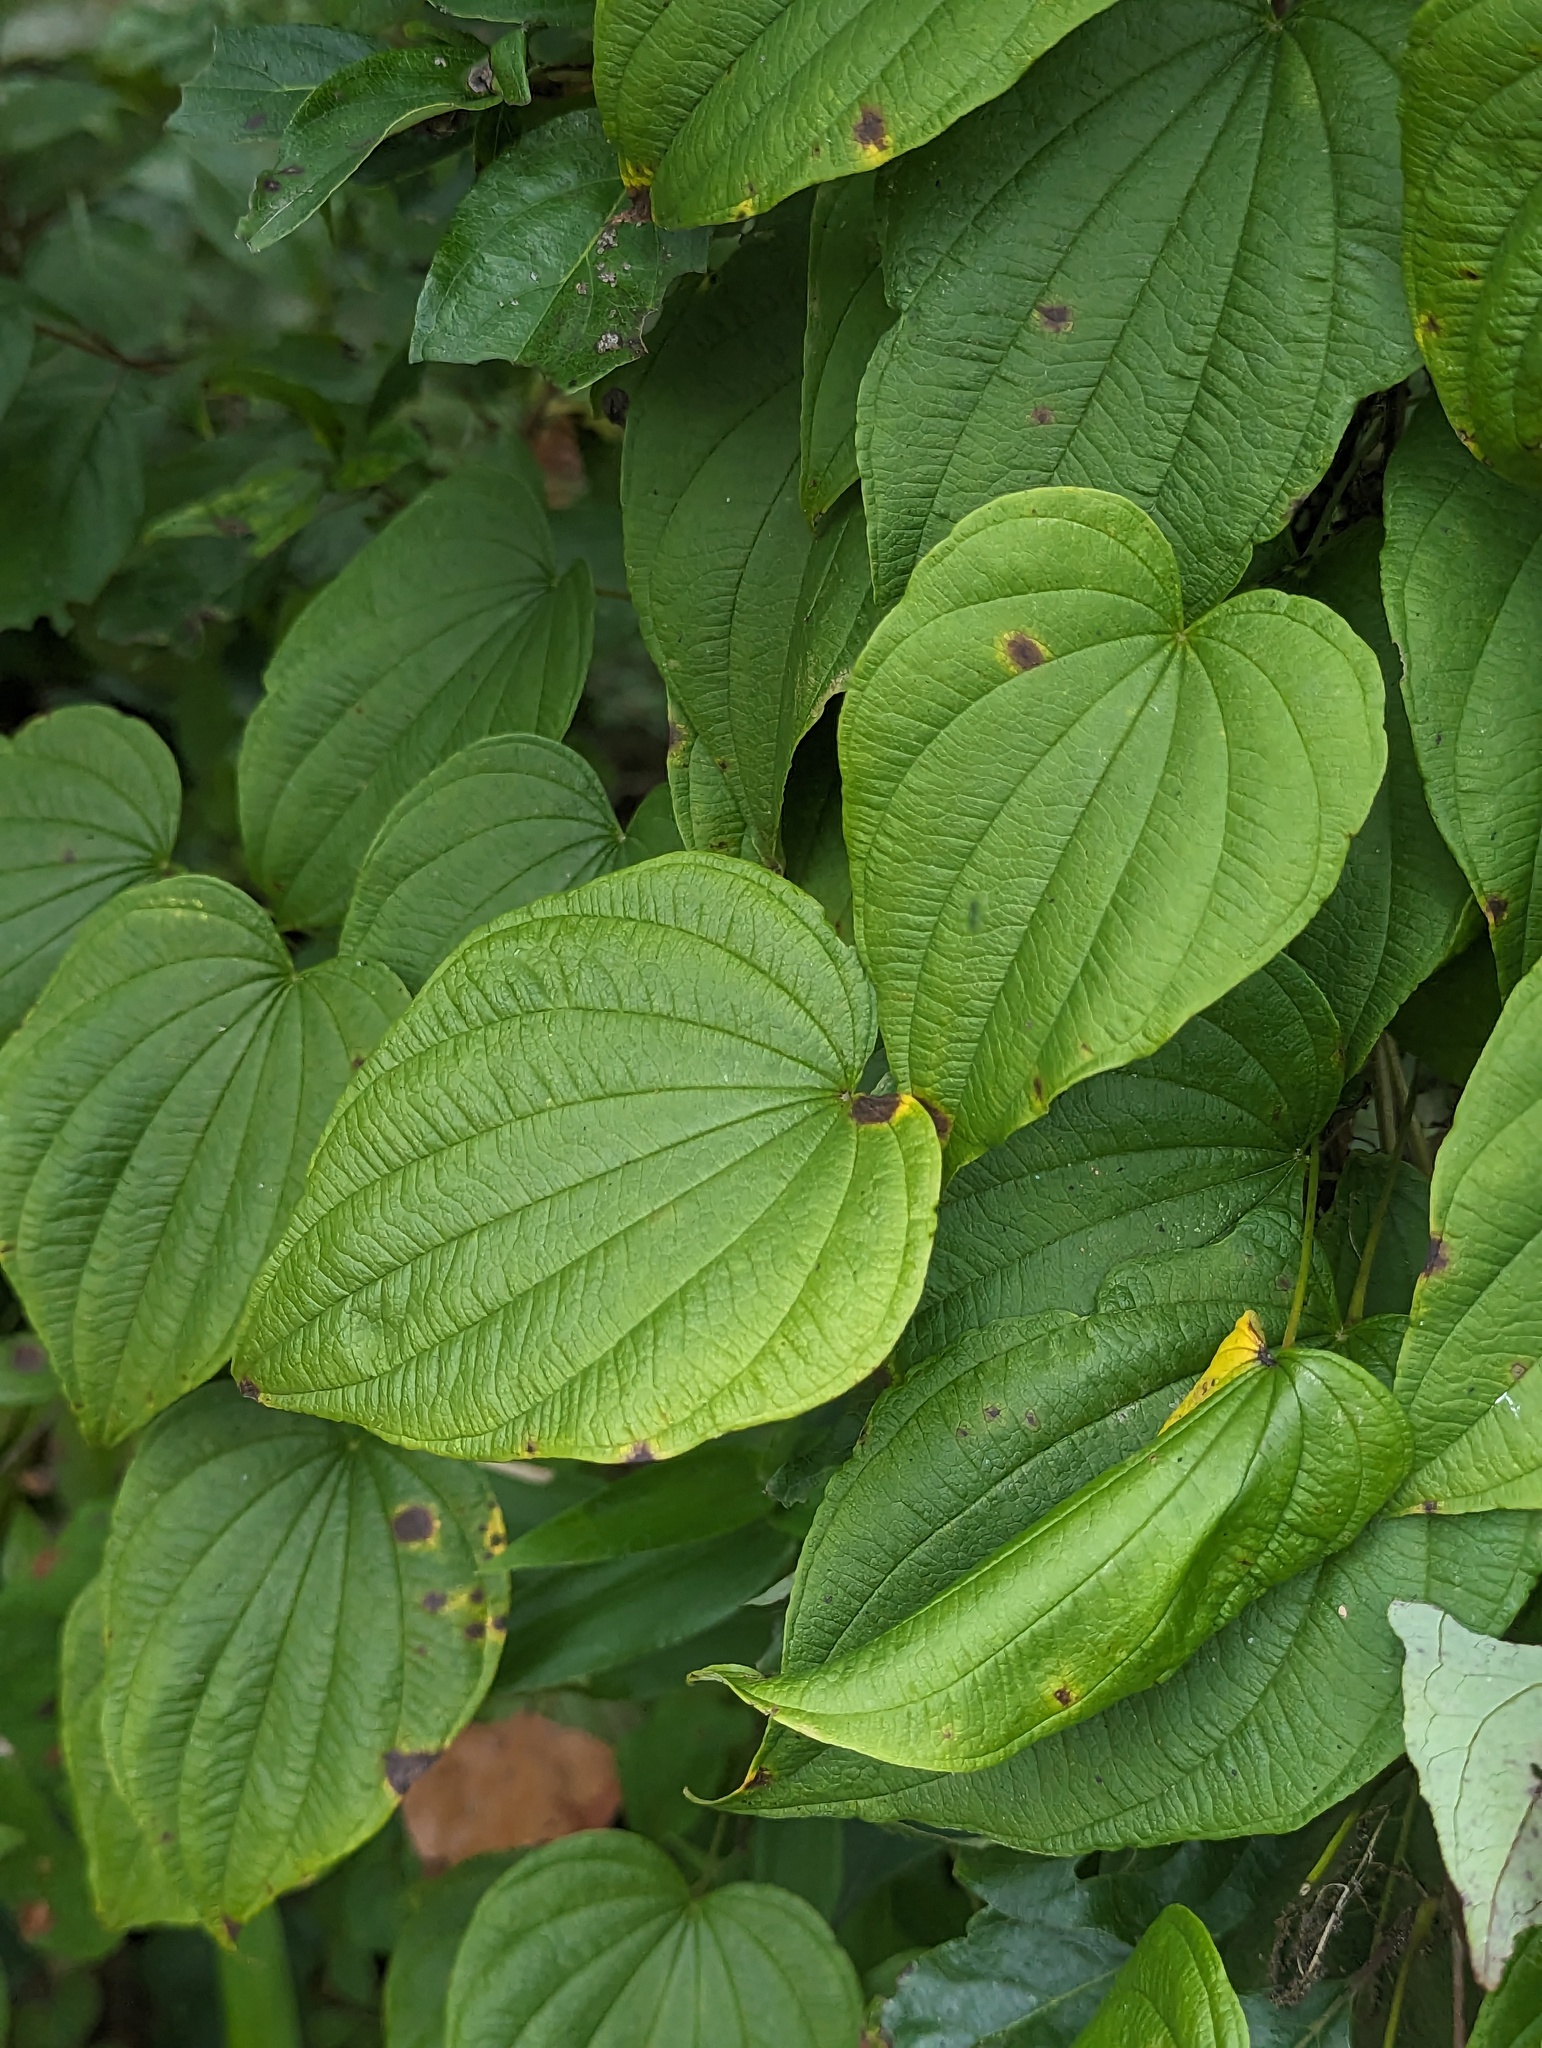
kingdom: Plantae
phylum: Tracheophyta
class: Liliopsida
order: Dioscoreales
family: Dioscoreaceae
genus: Dioscorea
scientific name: Dioscorea villosa
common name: Wild yam
